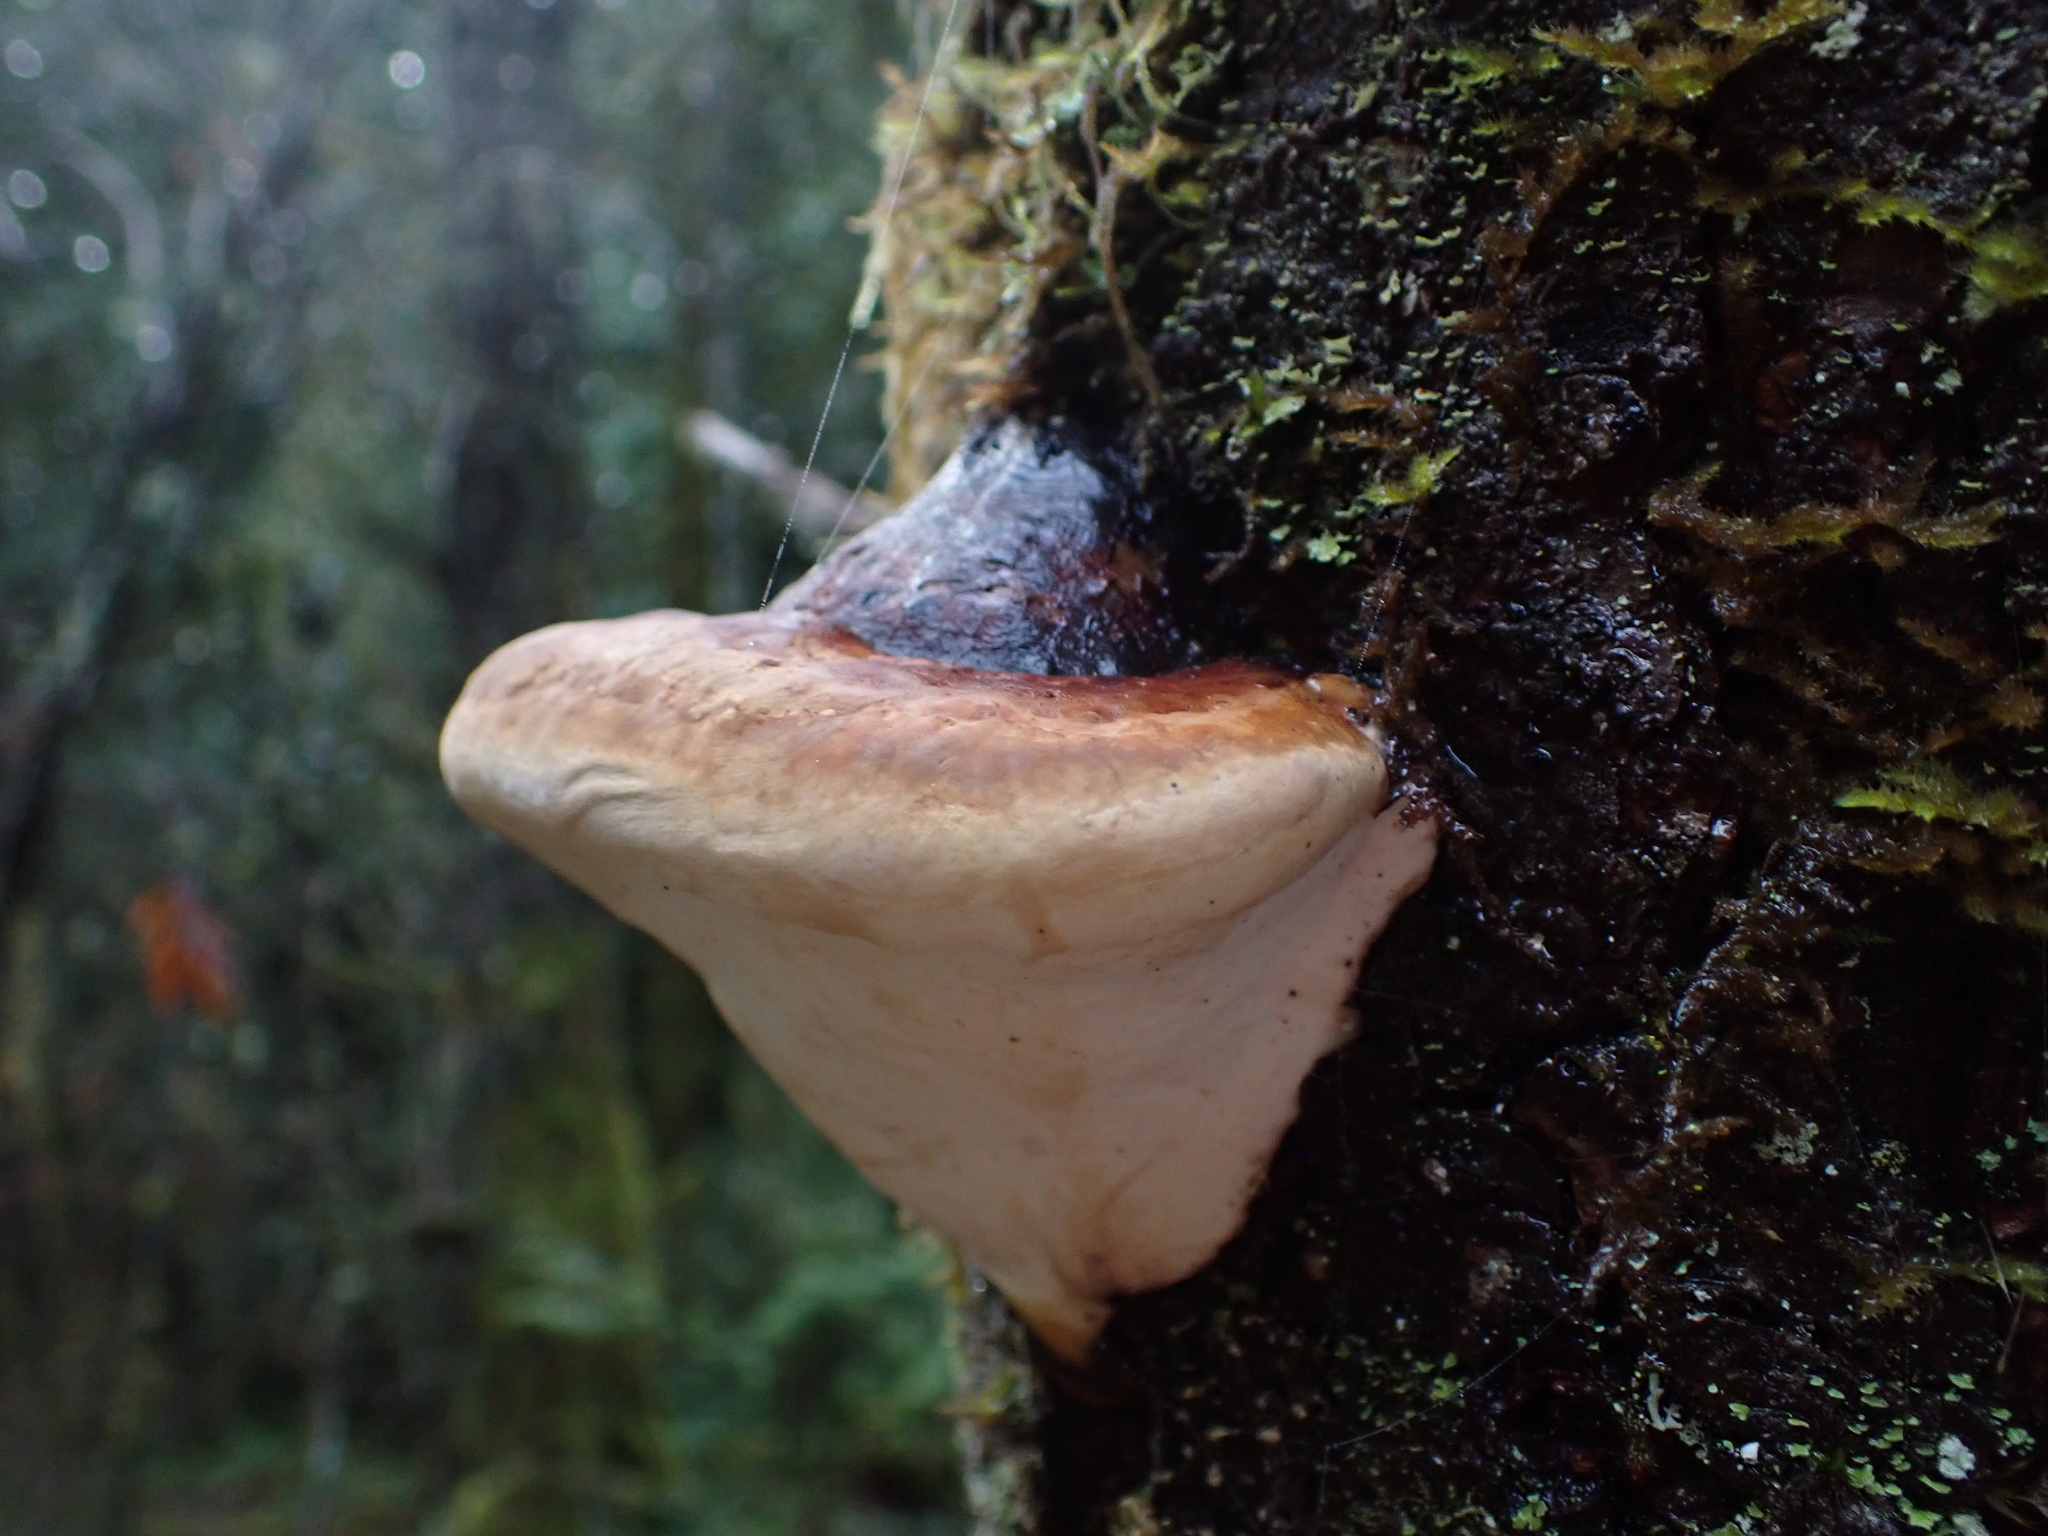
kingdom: Fungi
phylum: Basidiomycota
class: Agaricomycetes
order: Polyporales
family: Fomitopsidaceae
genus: Fomitopsis
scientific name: Fomitopsis mounceae
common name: Northern red belt
